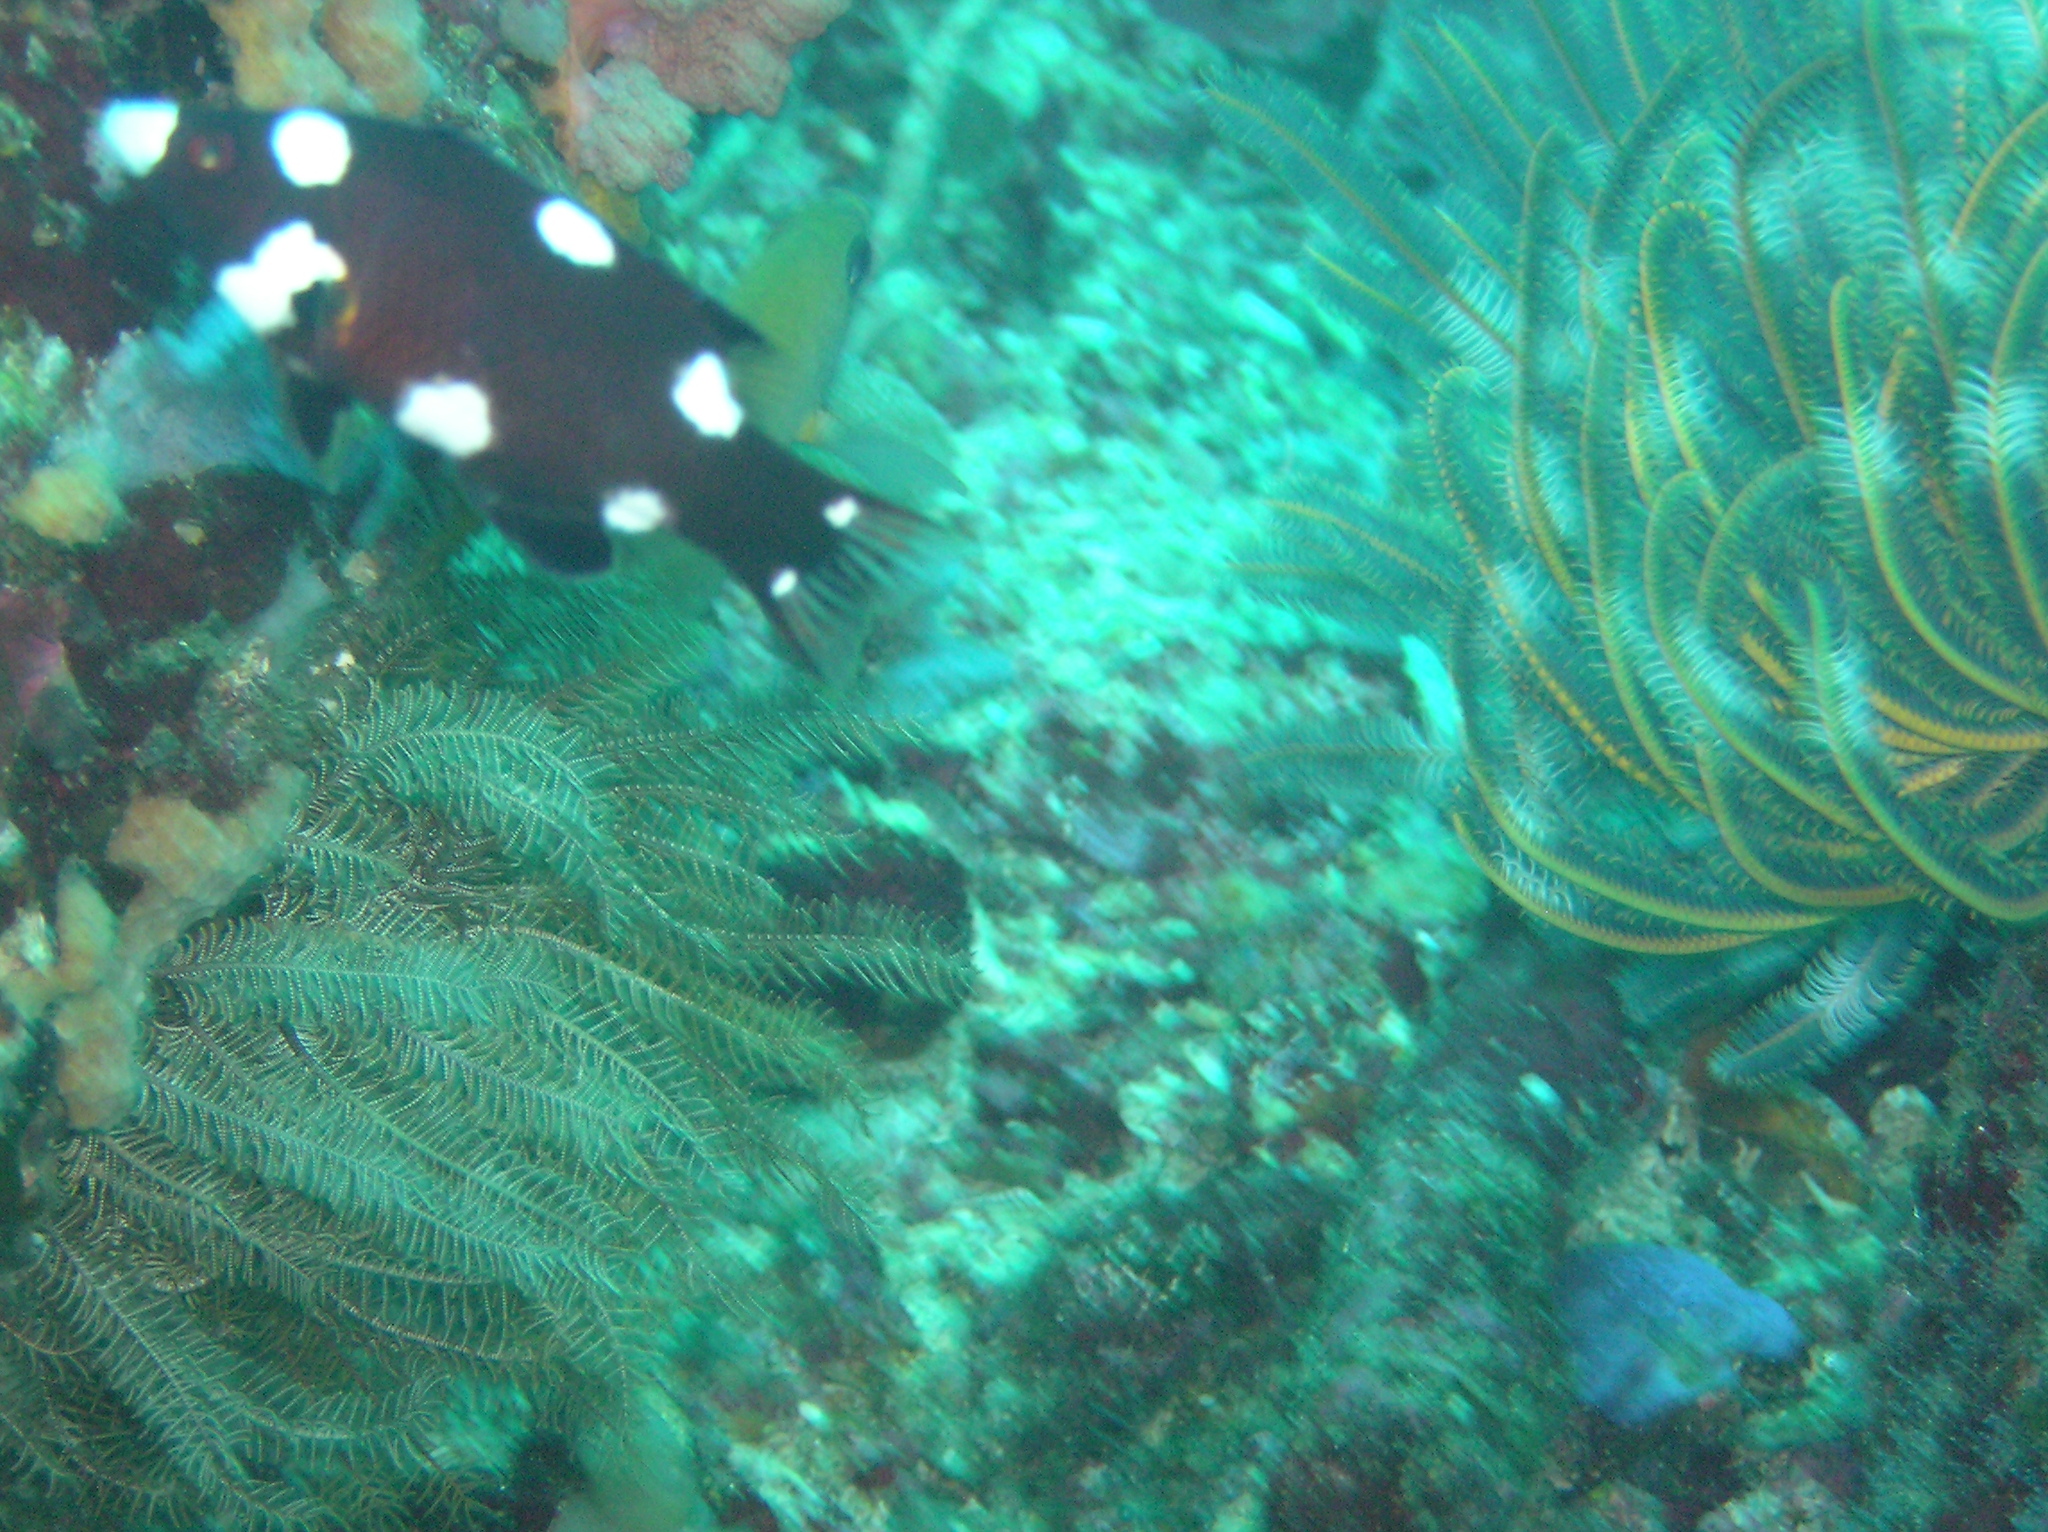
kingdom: Animalia
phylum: Chordata
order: Perciformes
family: Labridae
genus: Bodianus
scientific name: Bodianus axillaris
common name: Axilspot hogfish
